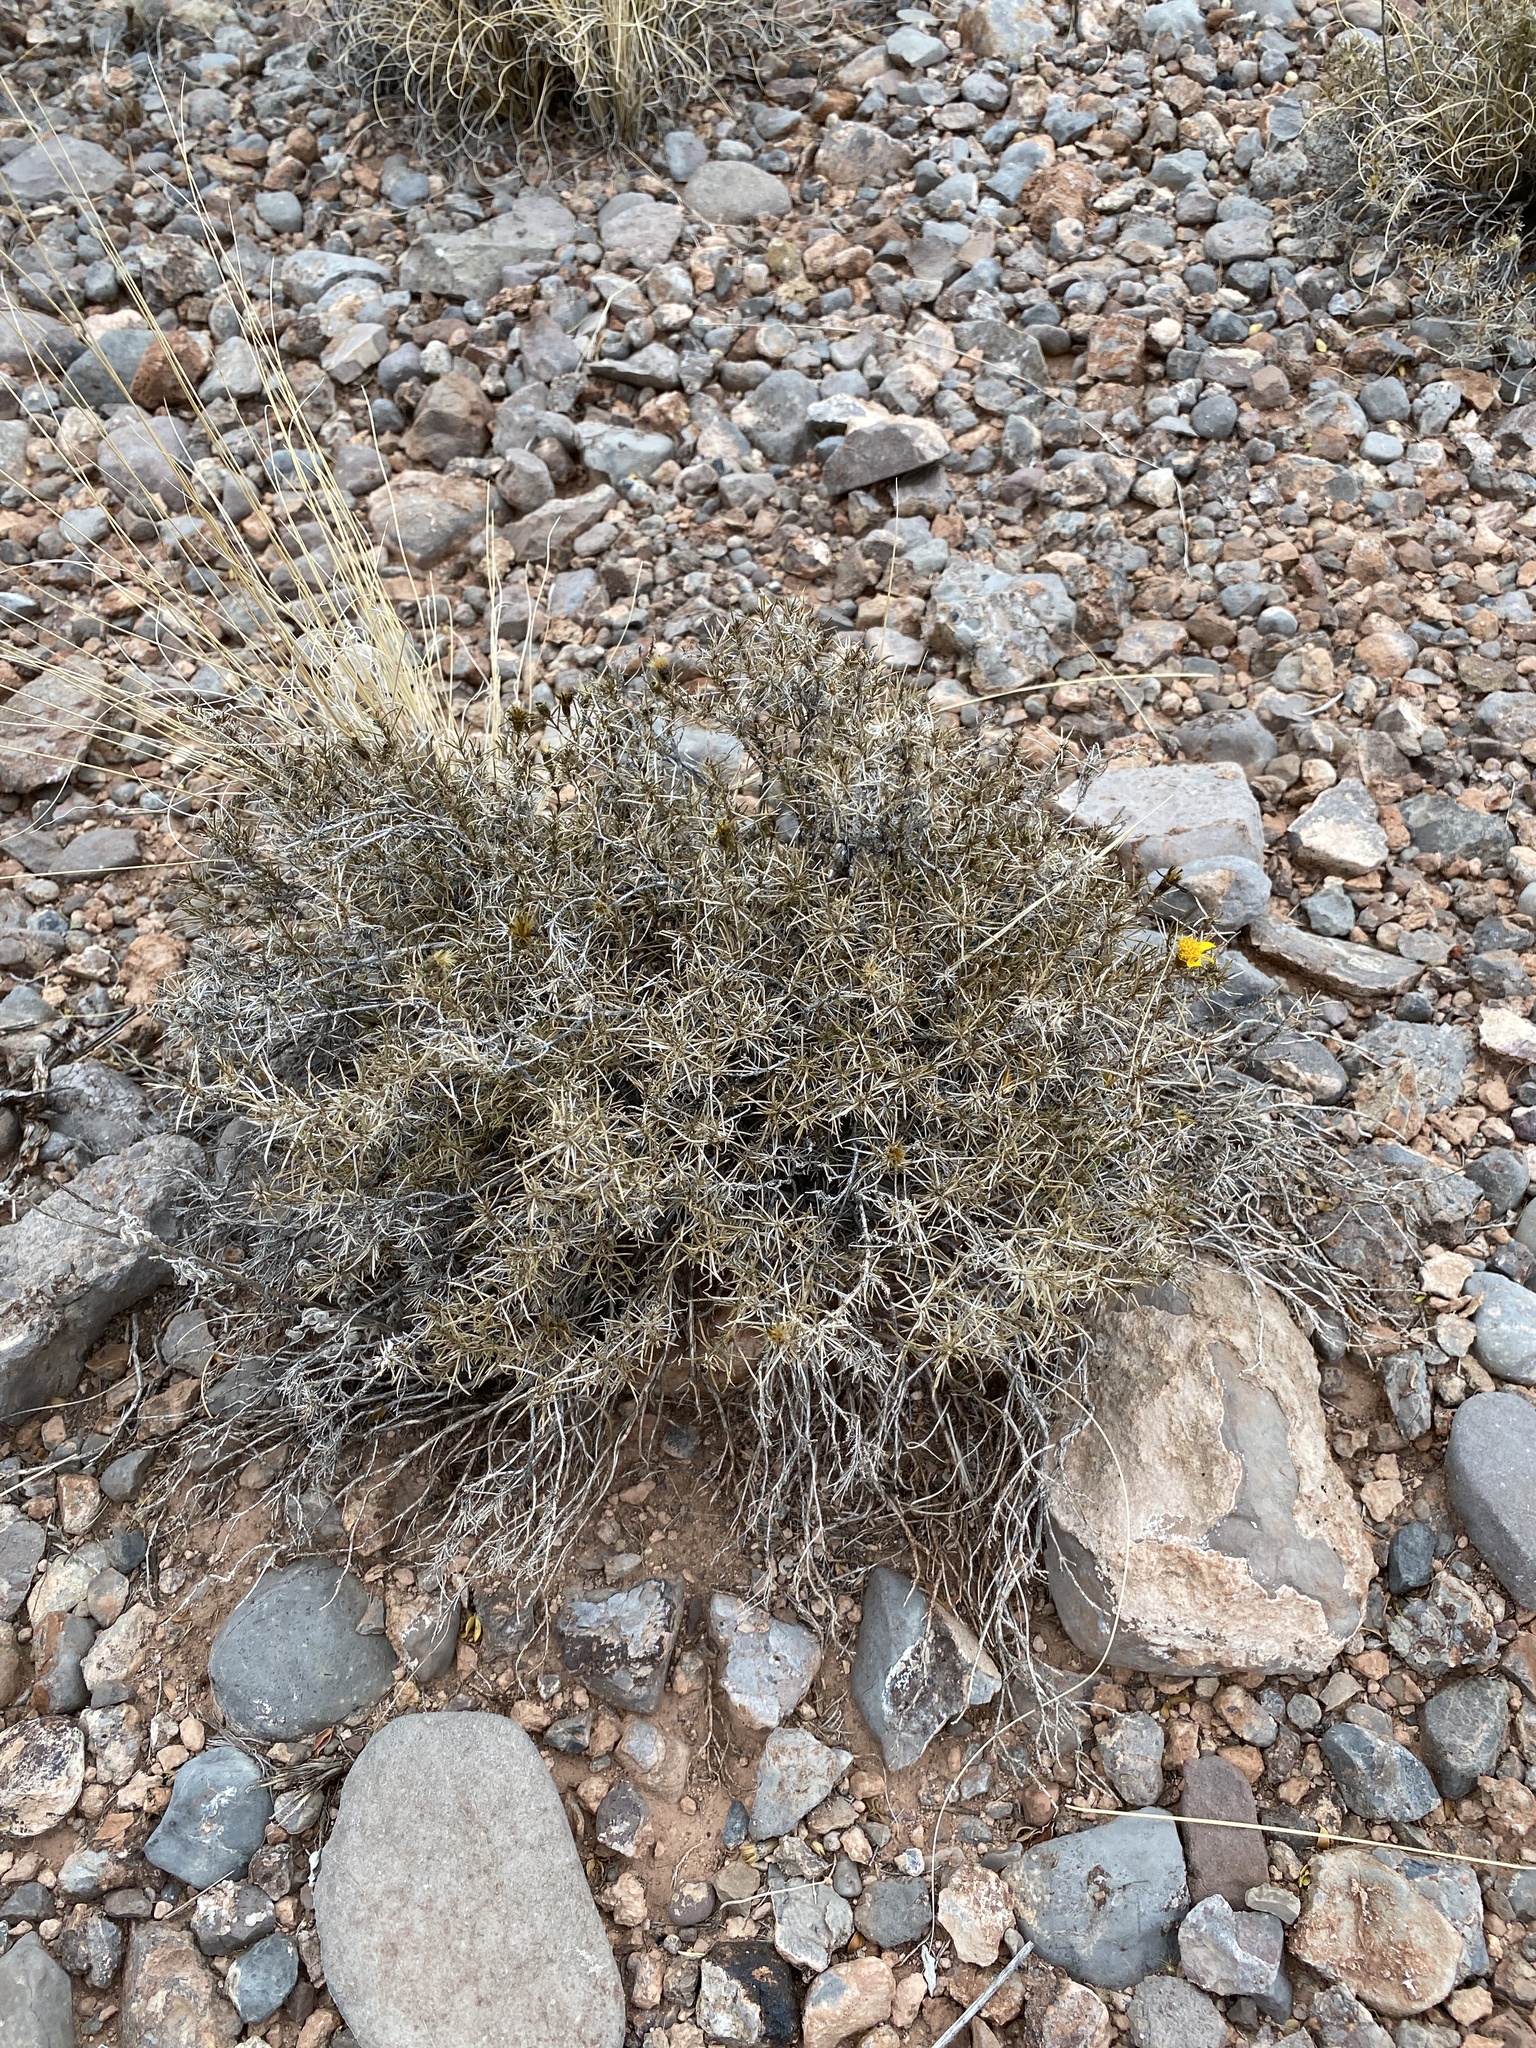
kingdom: Plantae
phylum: Tracheophyta
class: Magnoliopsida
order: Asterales
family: Asteraceae
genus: Thymophylla
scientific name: Thymophylla acerosa
